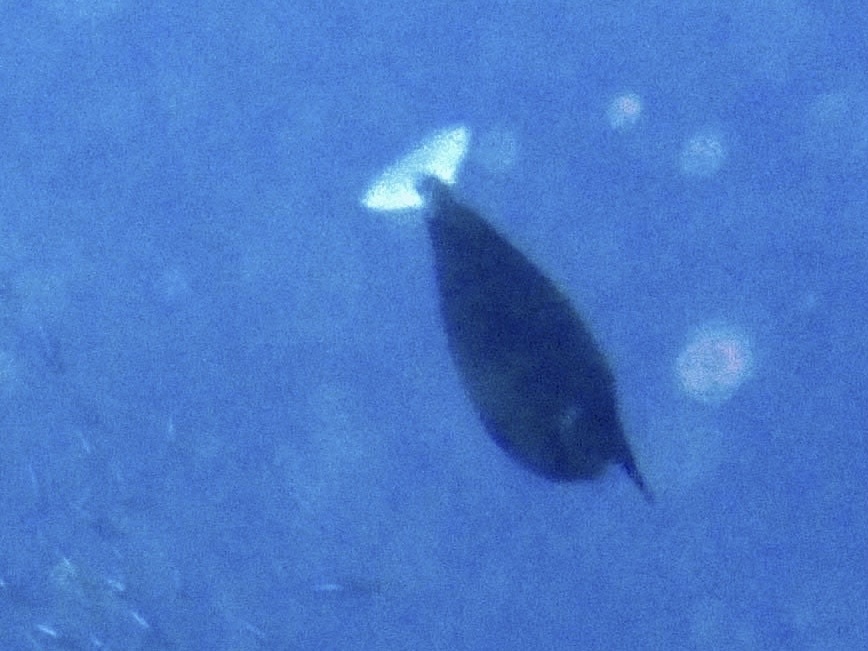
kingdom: Animalia
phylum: Chordata
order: Perciformes
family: Acanthuridae
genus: Naso
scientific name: Naso brevirostris
